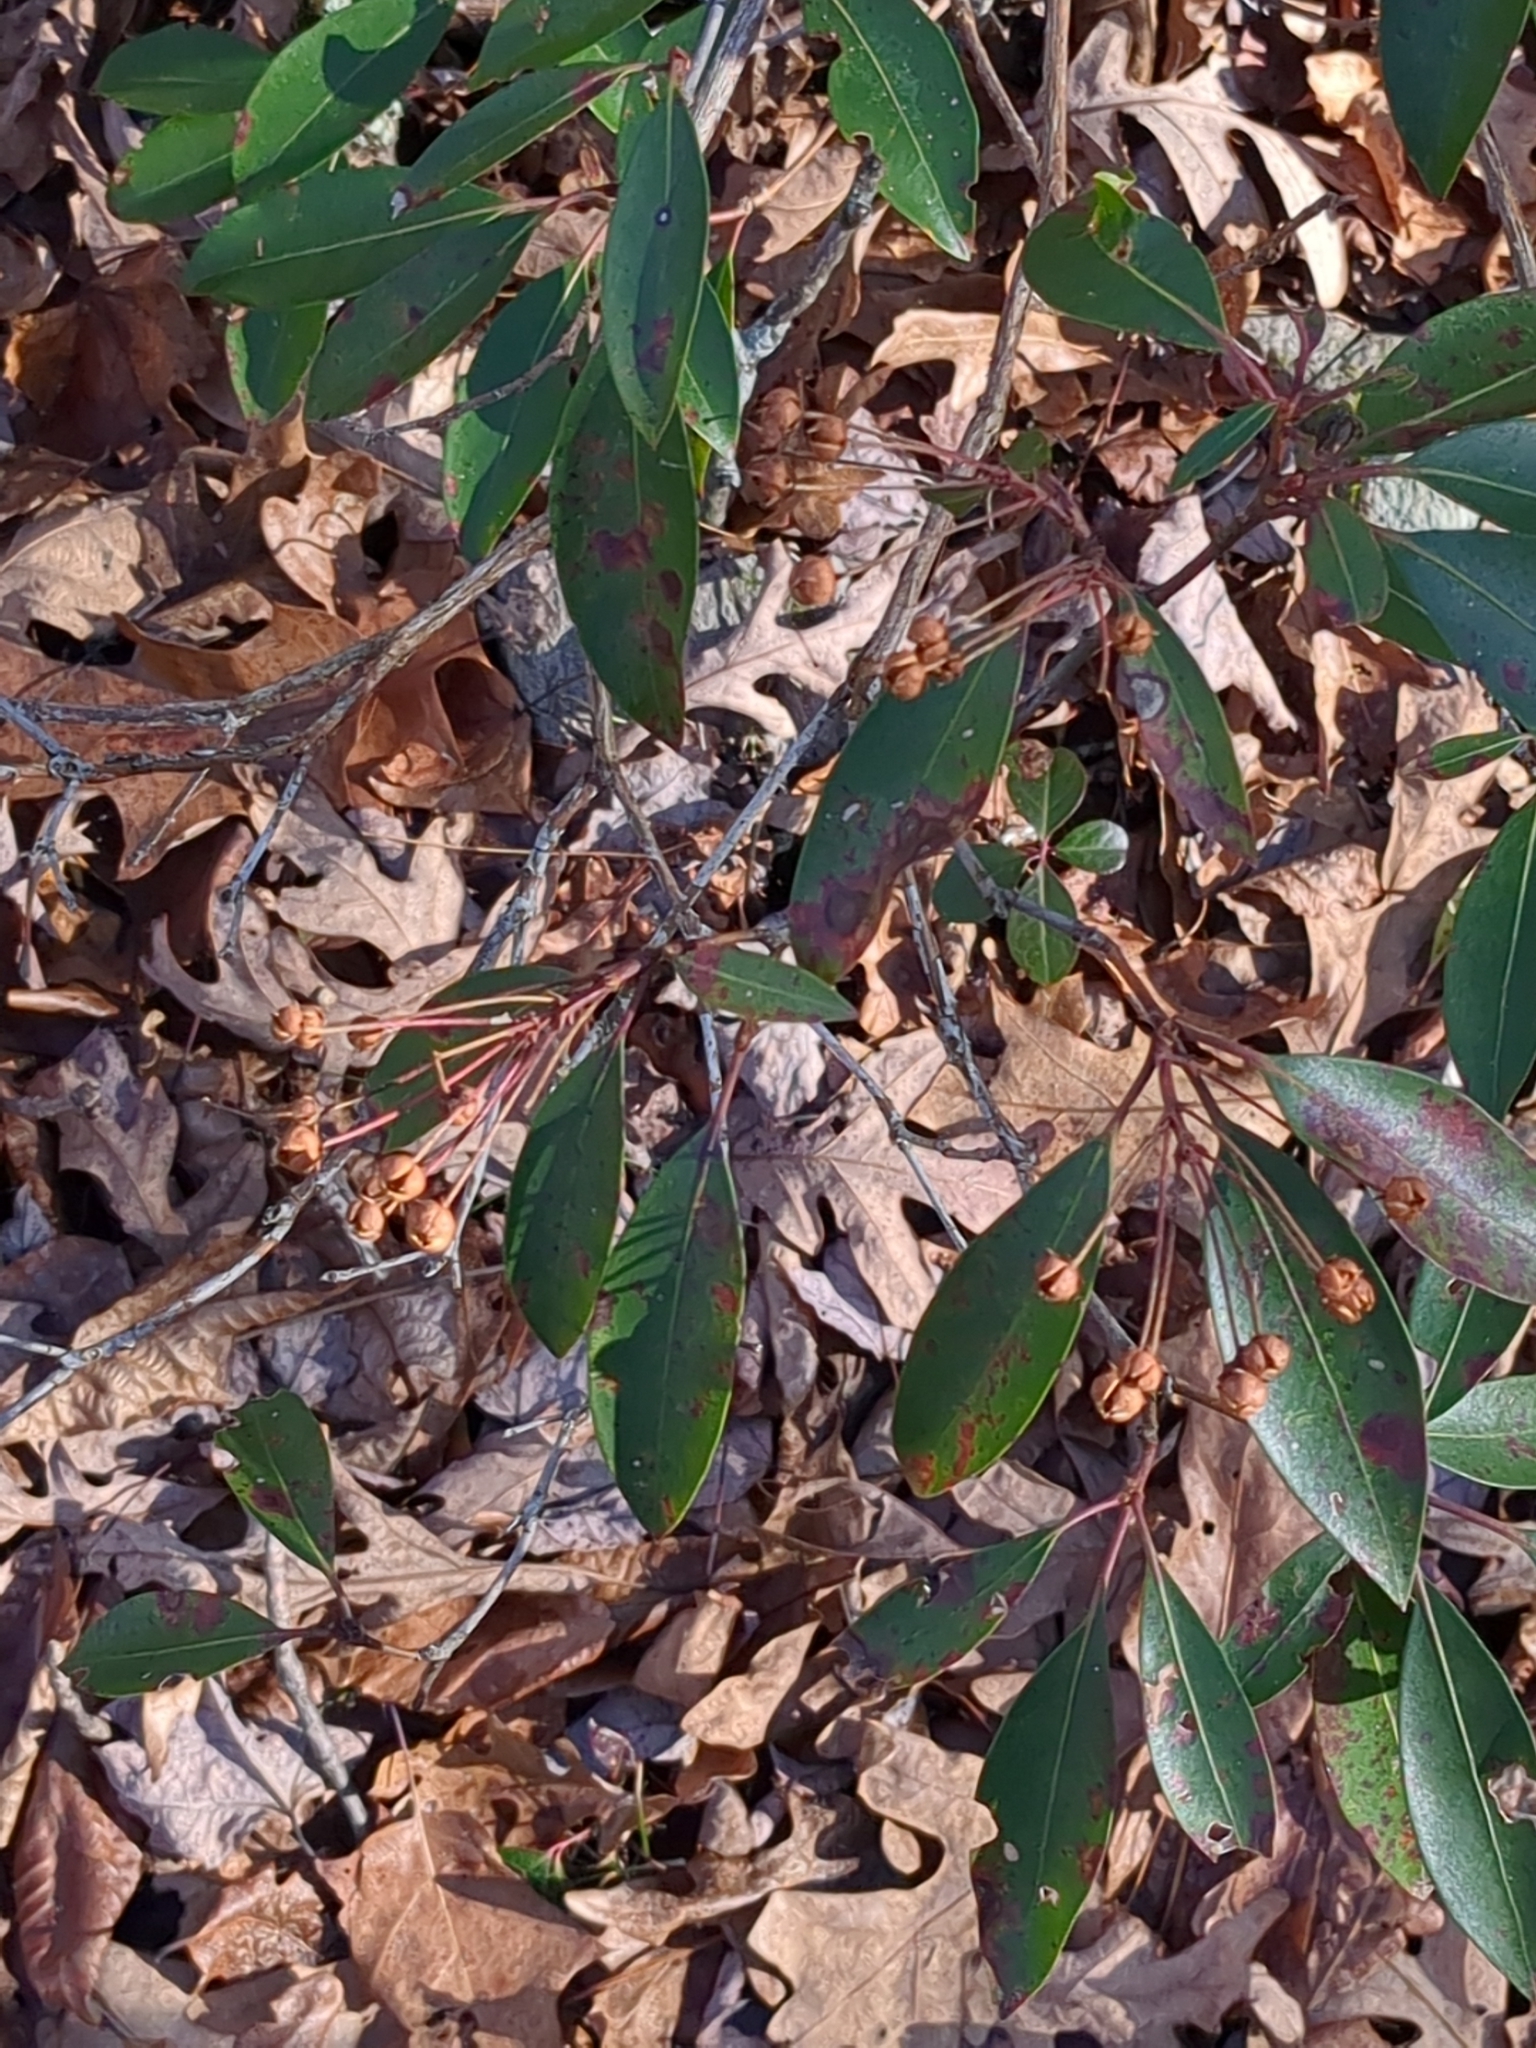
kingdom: Plantae
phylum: Tracheophyta
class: Magnoliopsida
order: Ericales
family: Ericaceae
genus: Kalmia
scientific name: Kalmia latifolia
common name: Mountain-laurel
